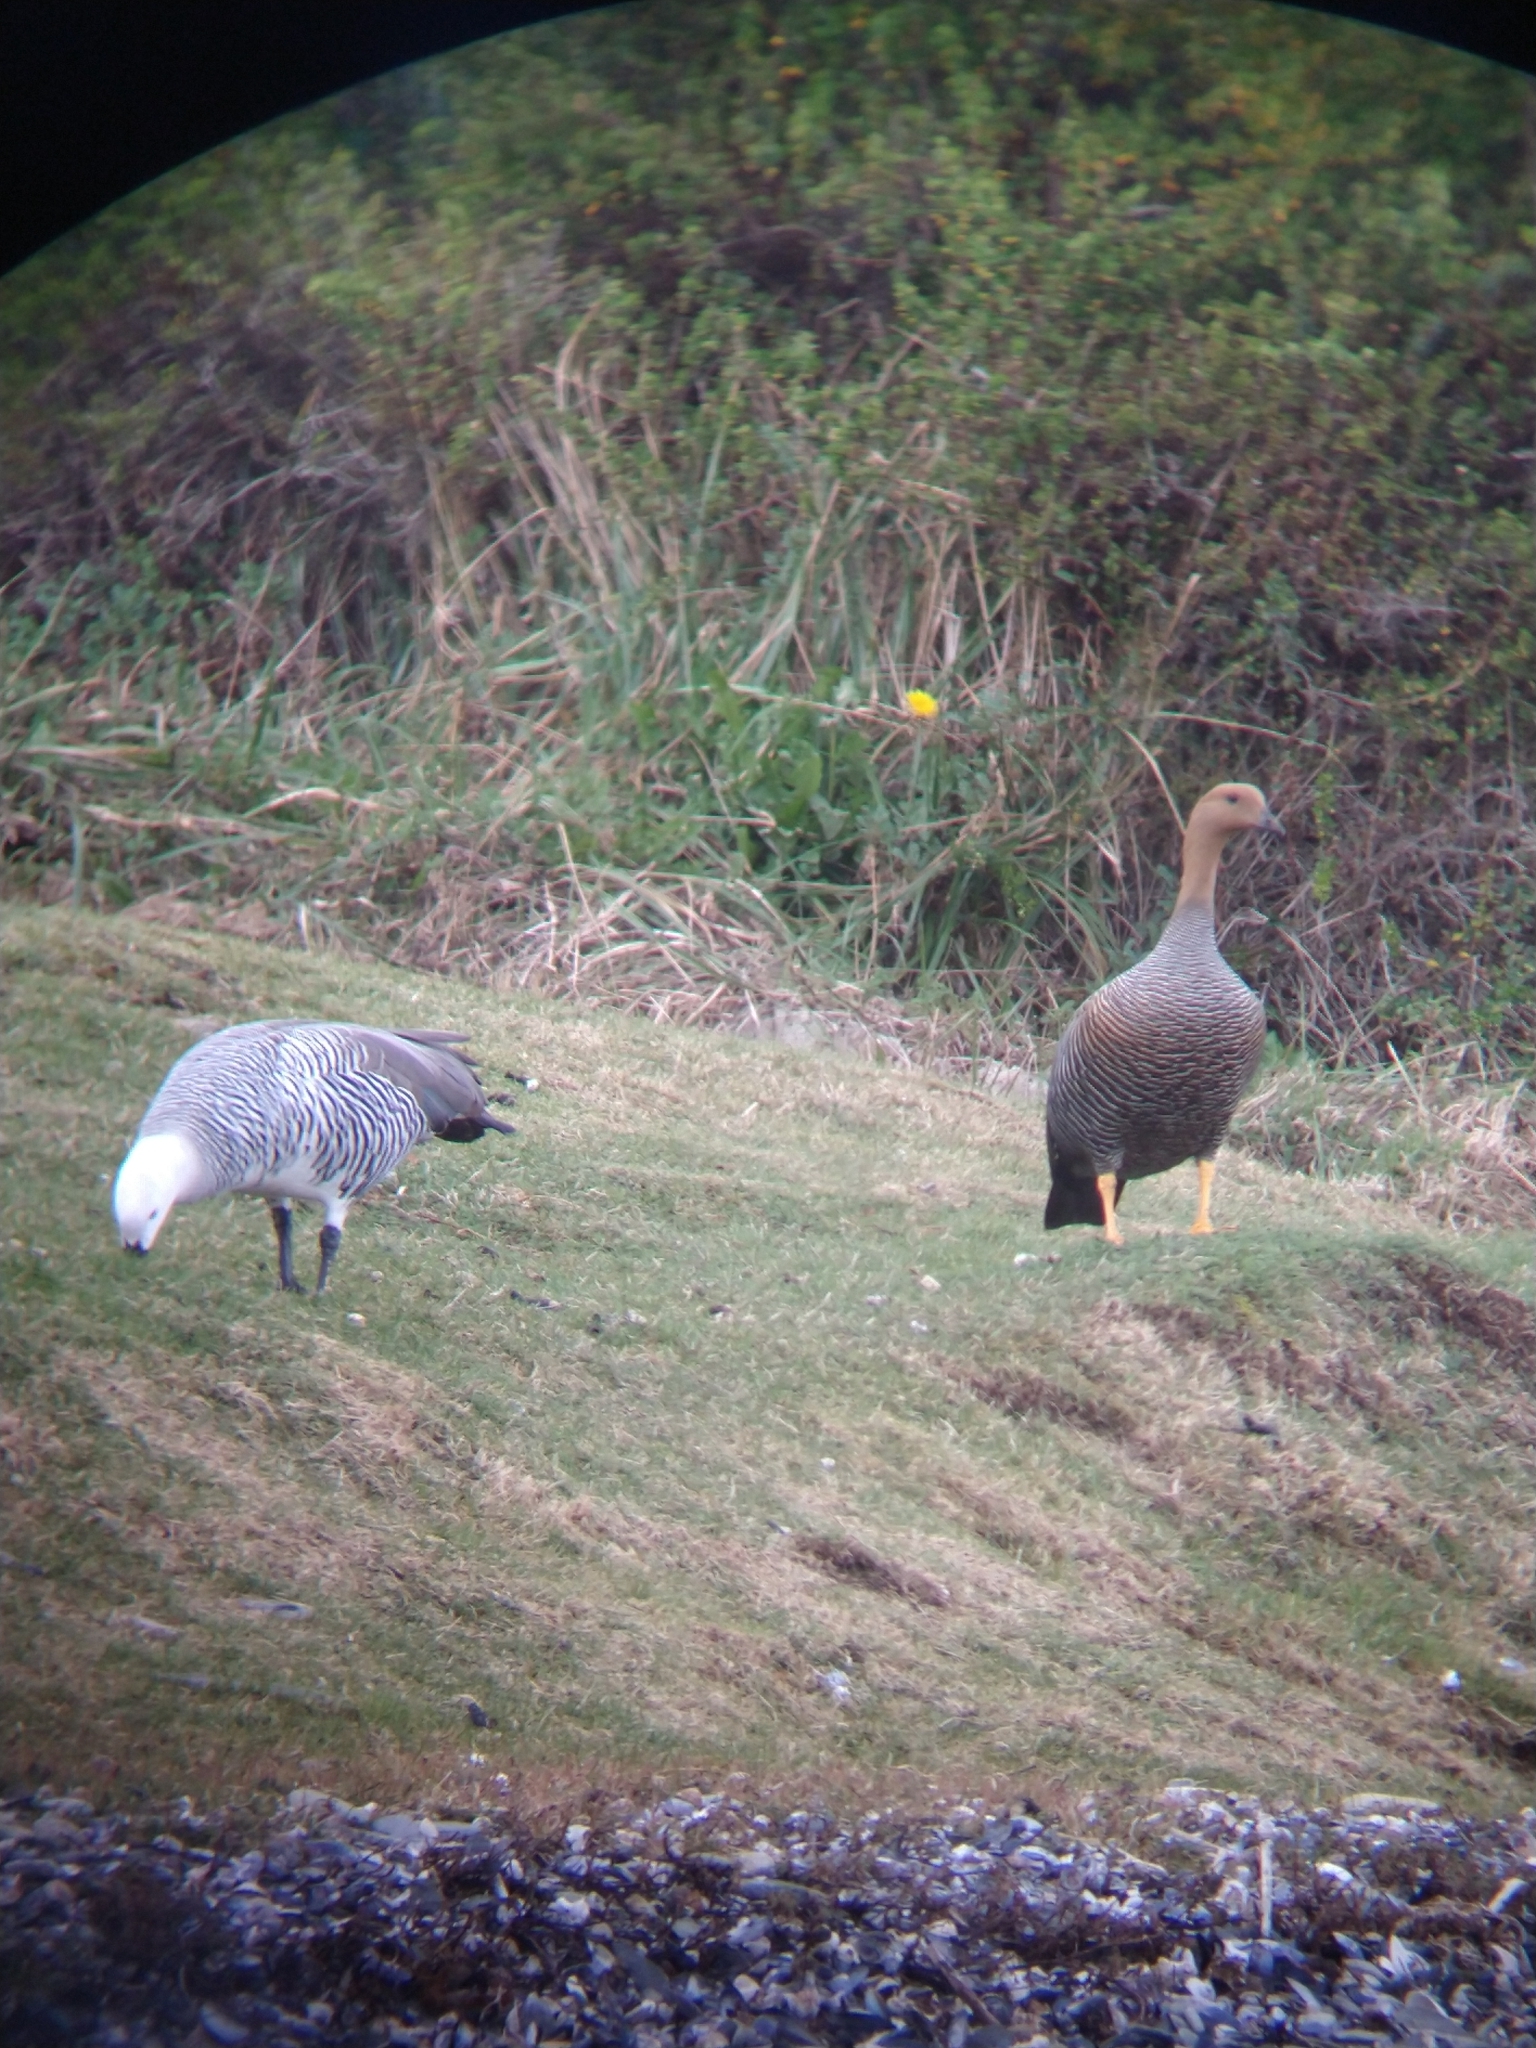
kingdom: Animalia
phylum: Chordata
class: Aves
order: Anseriformes
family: Anatidae
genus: Chloephaga
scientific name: Chloephaga picta
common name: Upland goose
